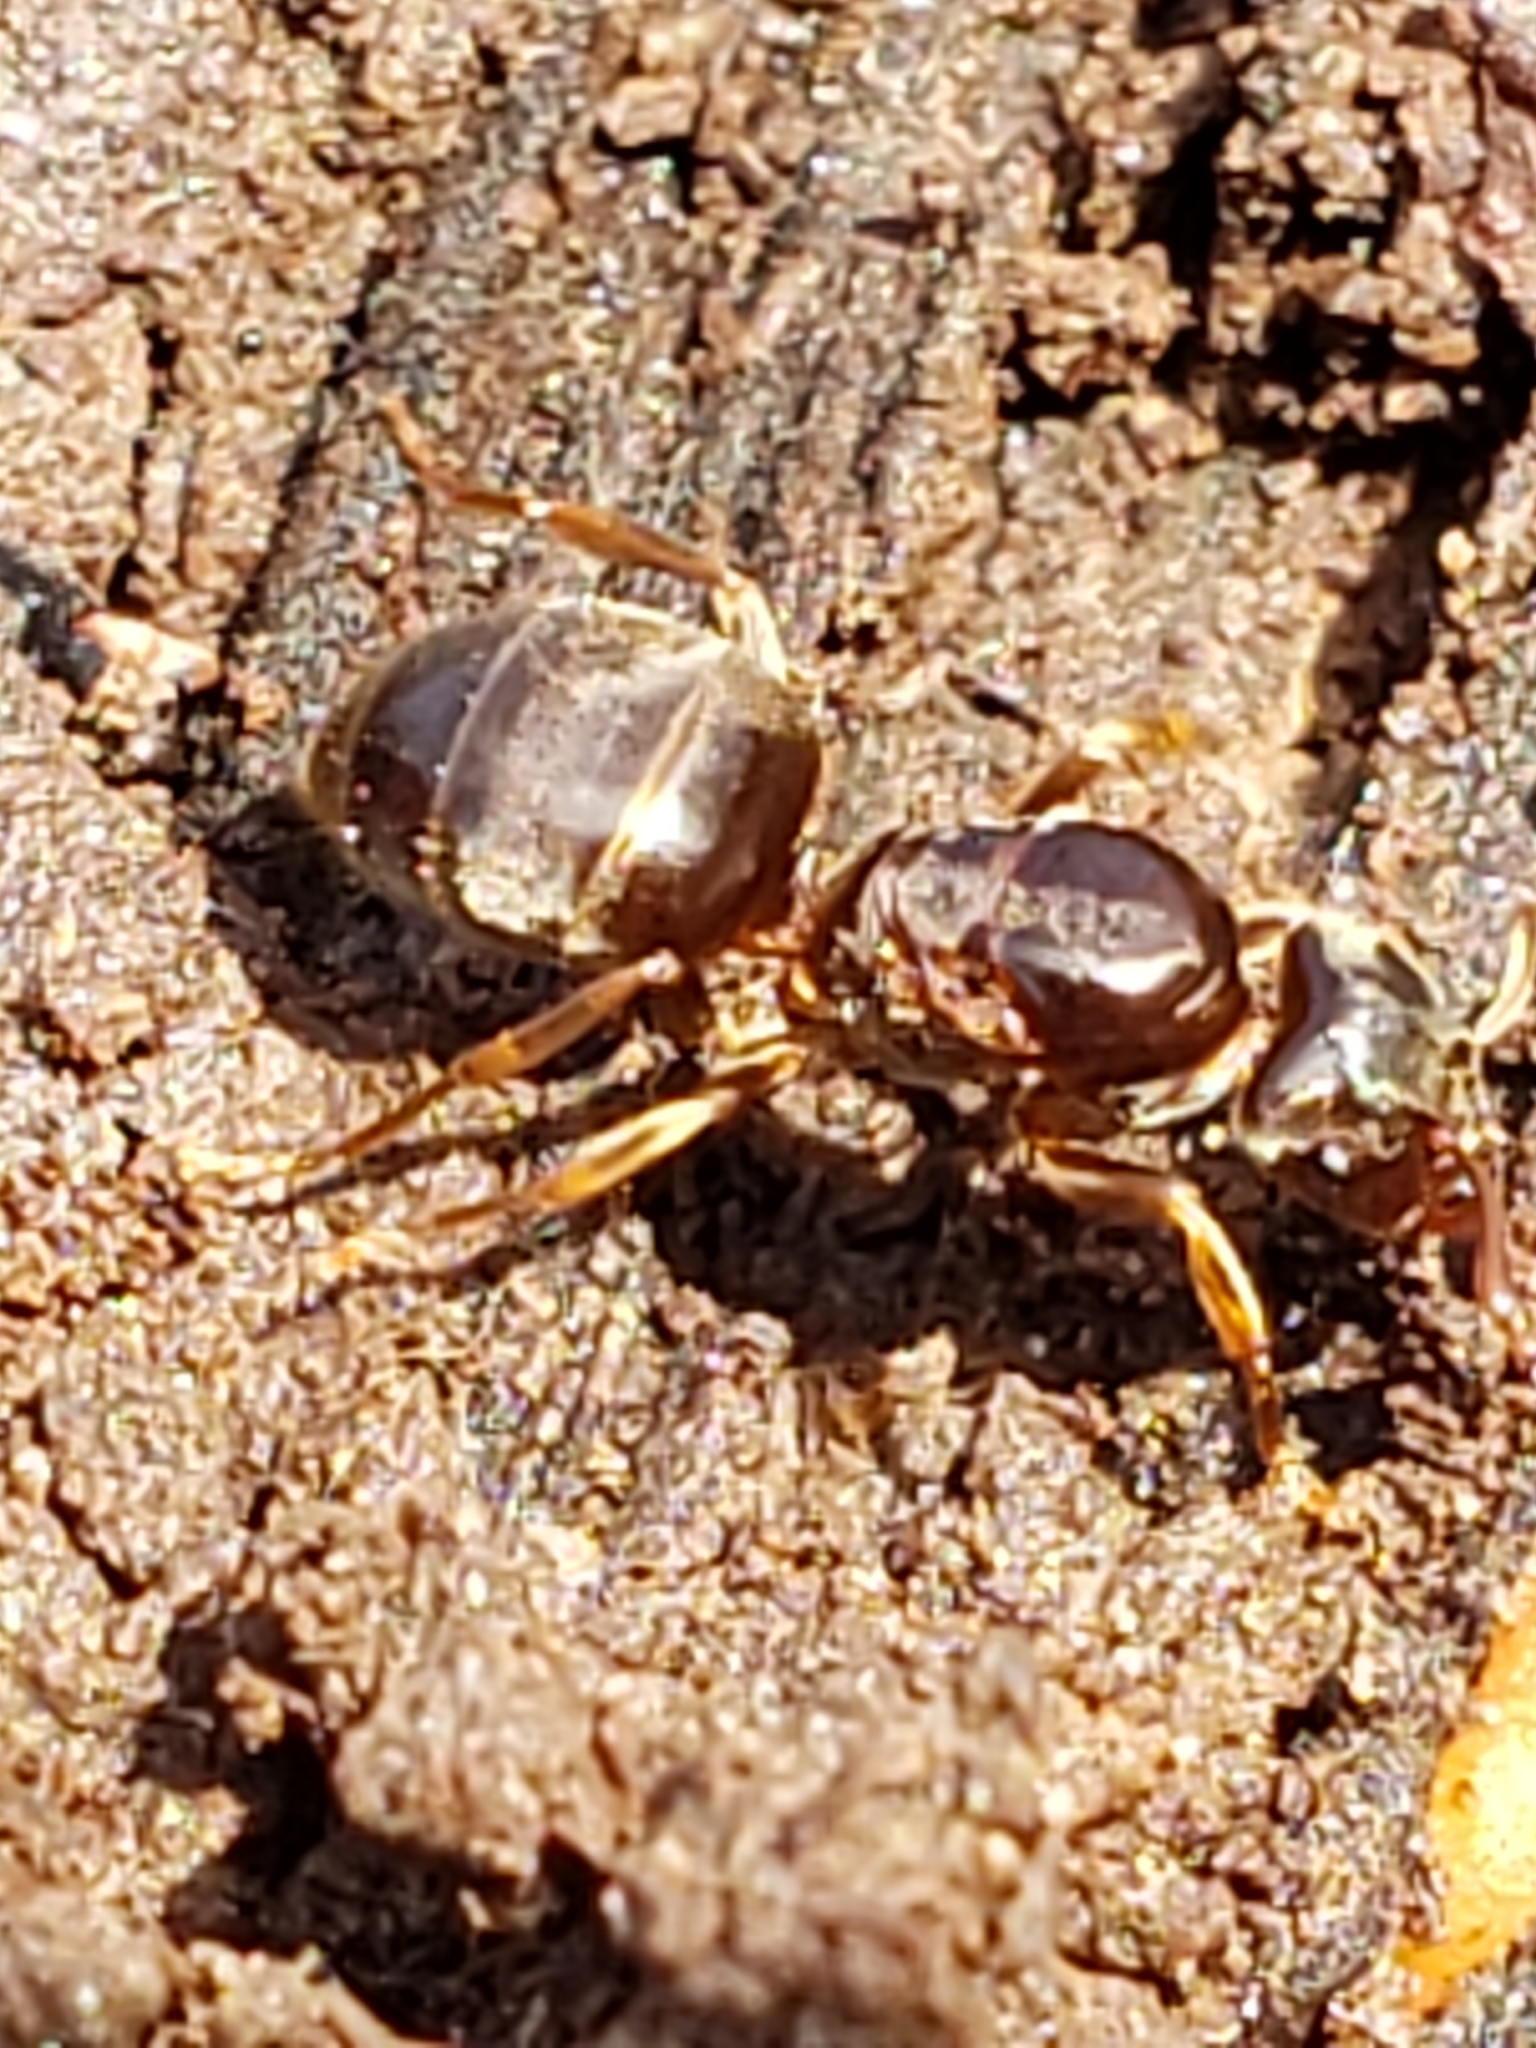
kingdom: Animalia
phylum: Arthropoda
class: Insecta
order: Hymenoptera
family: Formicidae
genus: Lasius
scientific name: Lasius aphidicola
